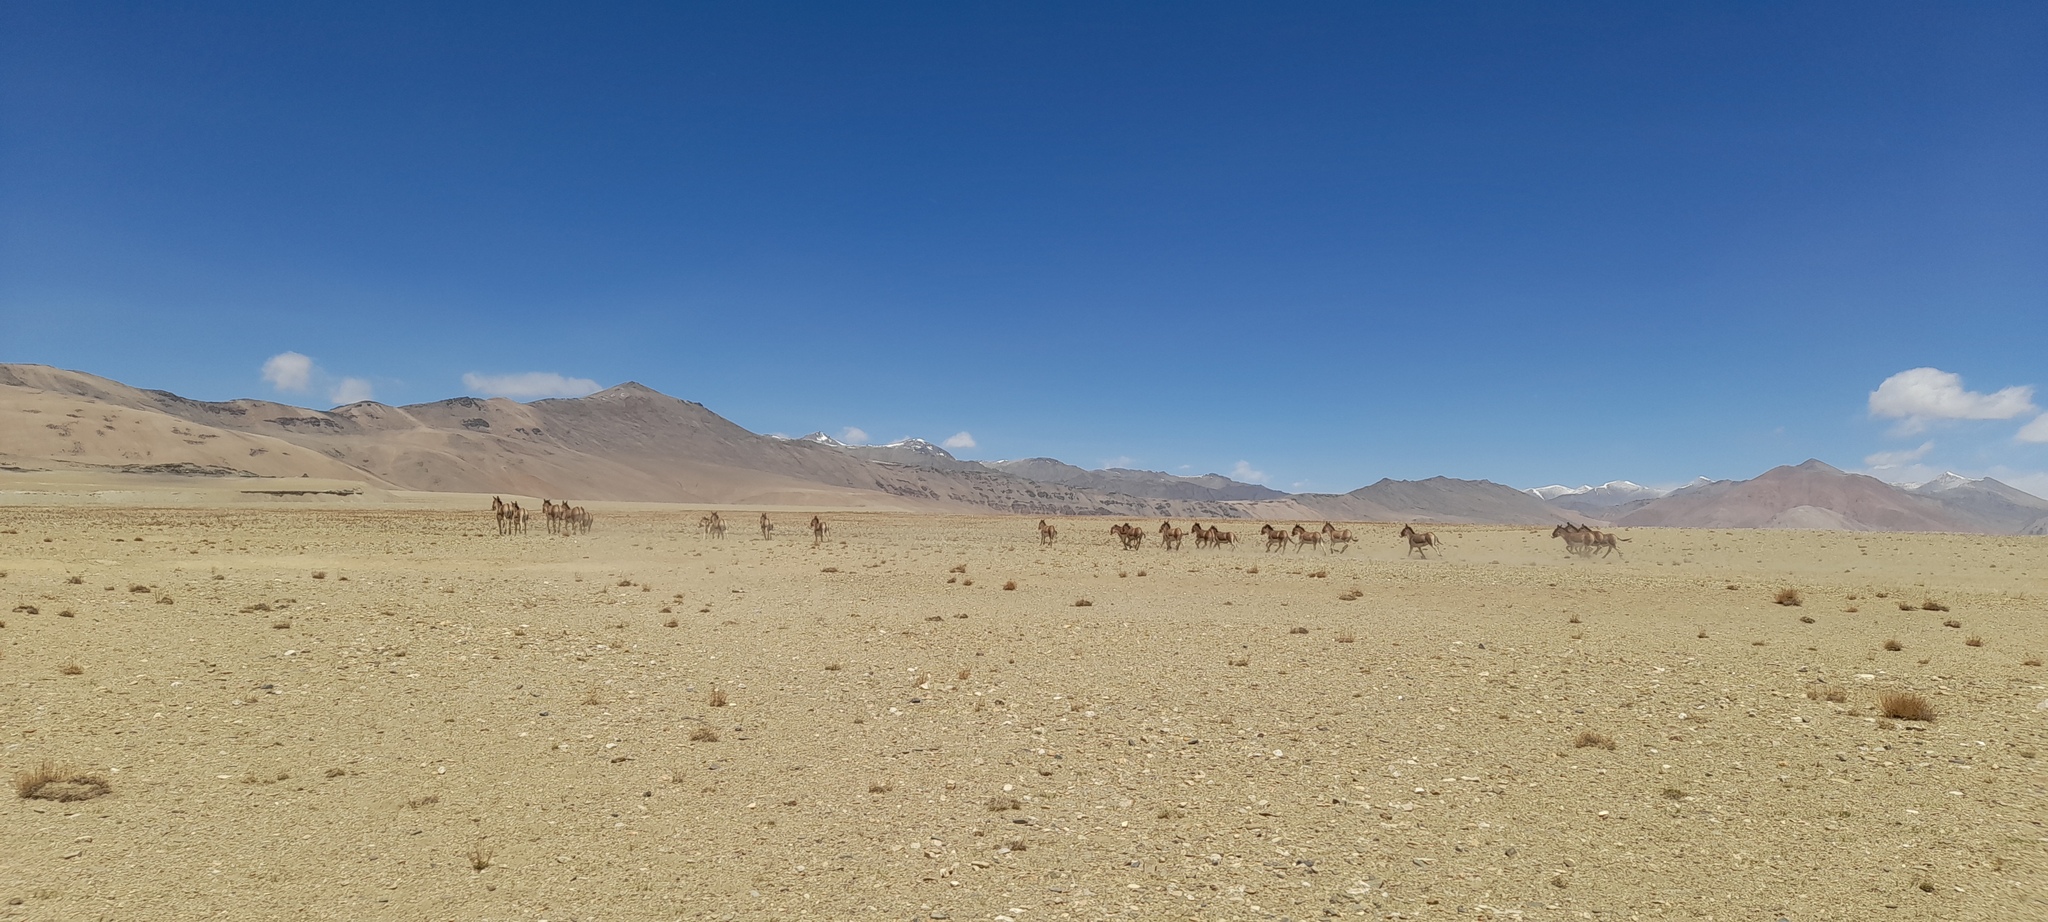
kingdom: Animalia
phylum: Chordata
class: Mammalia
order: Perissodactyla
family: Equidae
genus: Equus
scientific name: Equus kiang
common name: Kiang
